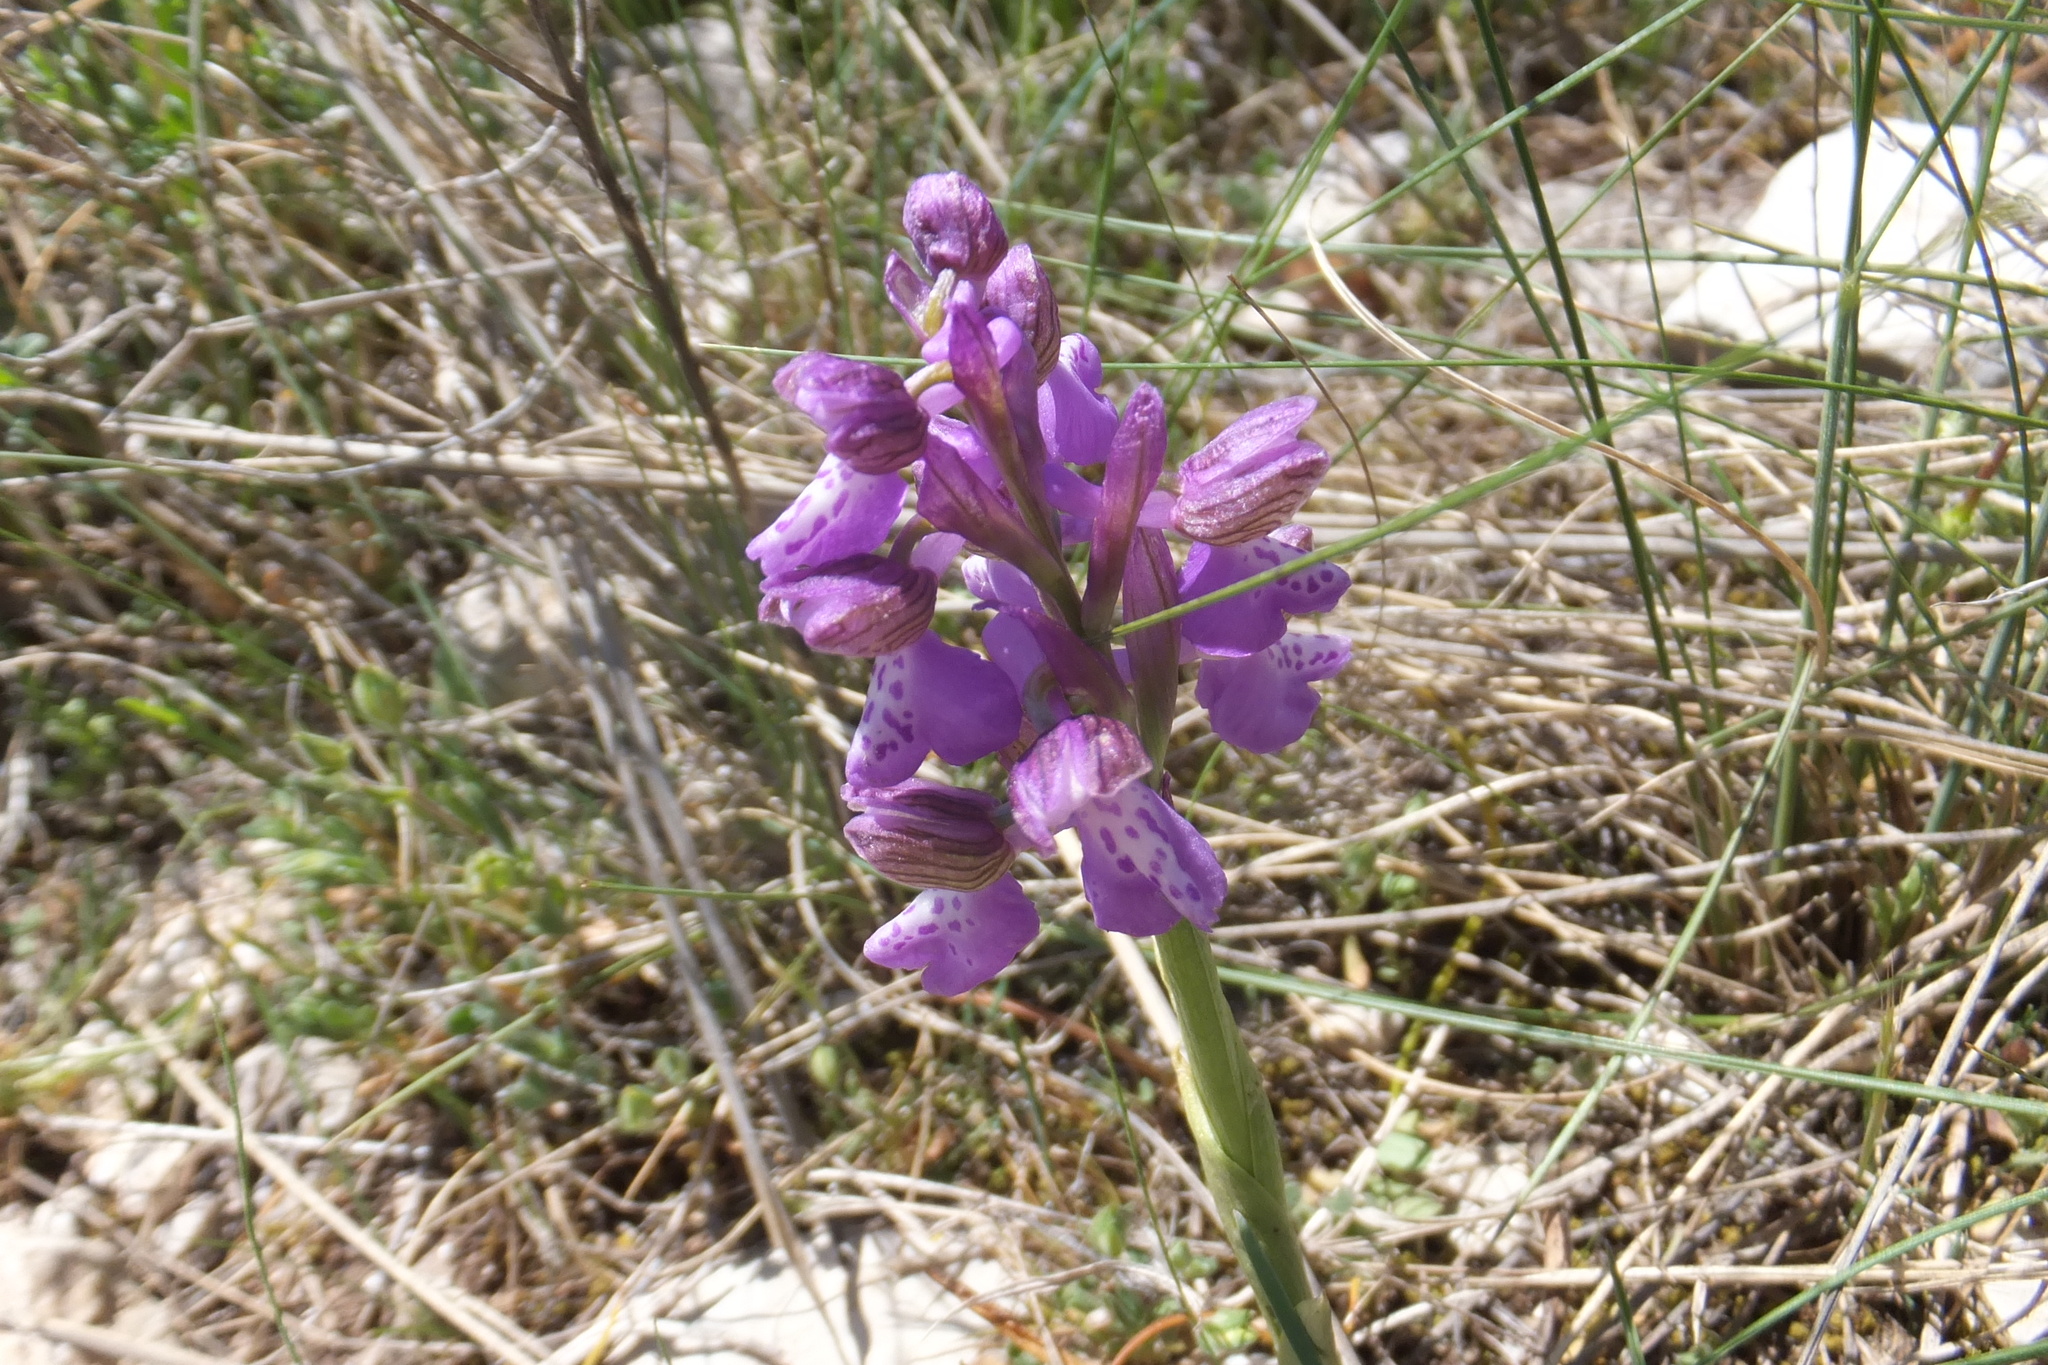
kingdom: Plantae
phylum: Tracheophyta
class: Liliopsida
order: Asparagales
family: Orchidaceae
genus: Anacamptis
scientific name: Anacamptis morio
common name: Green-winged orchid
